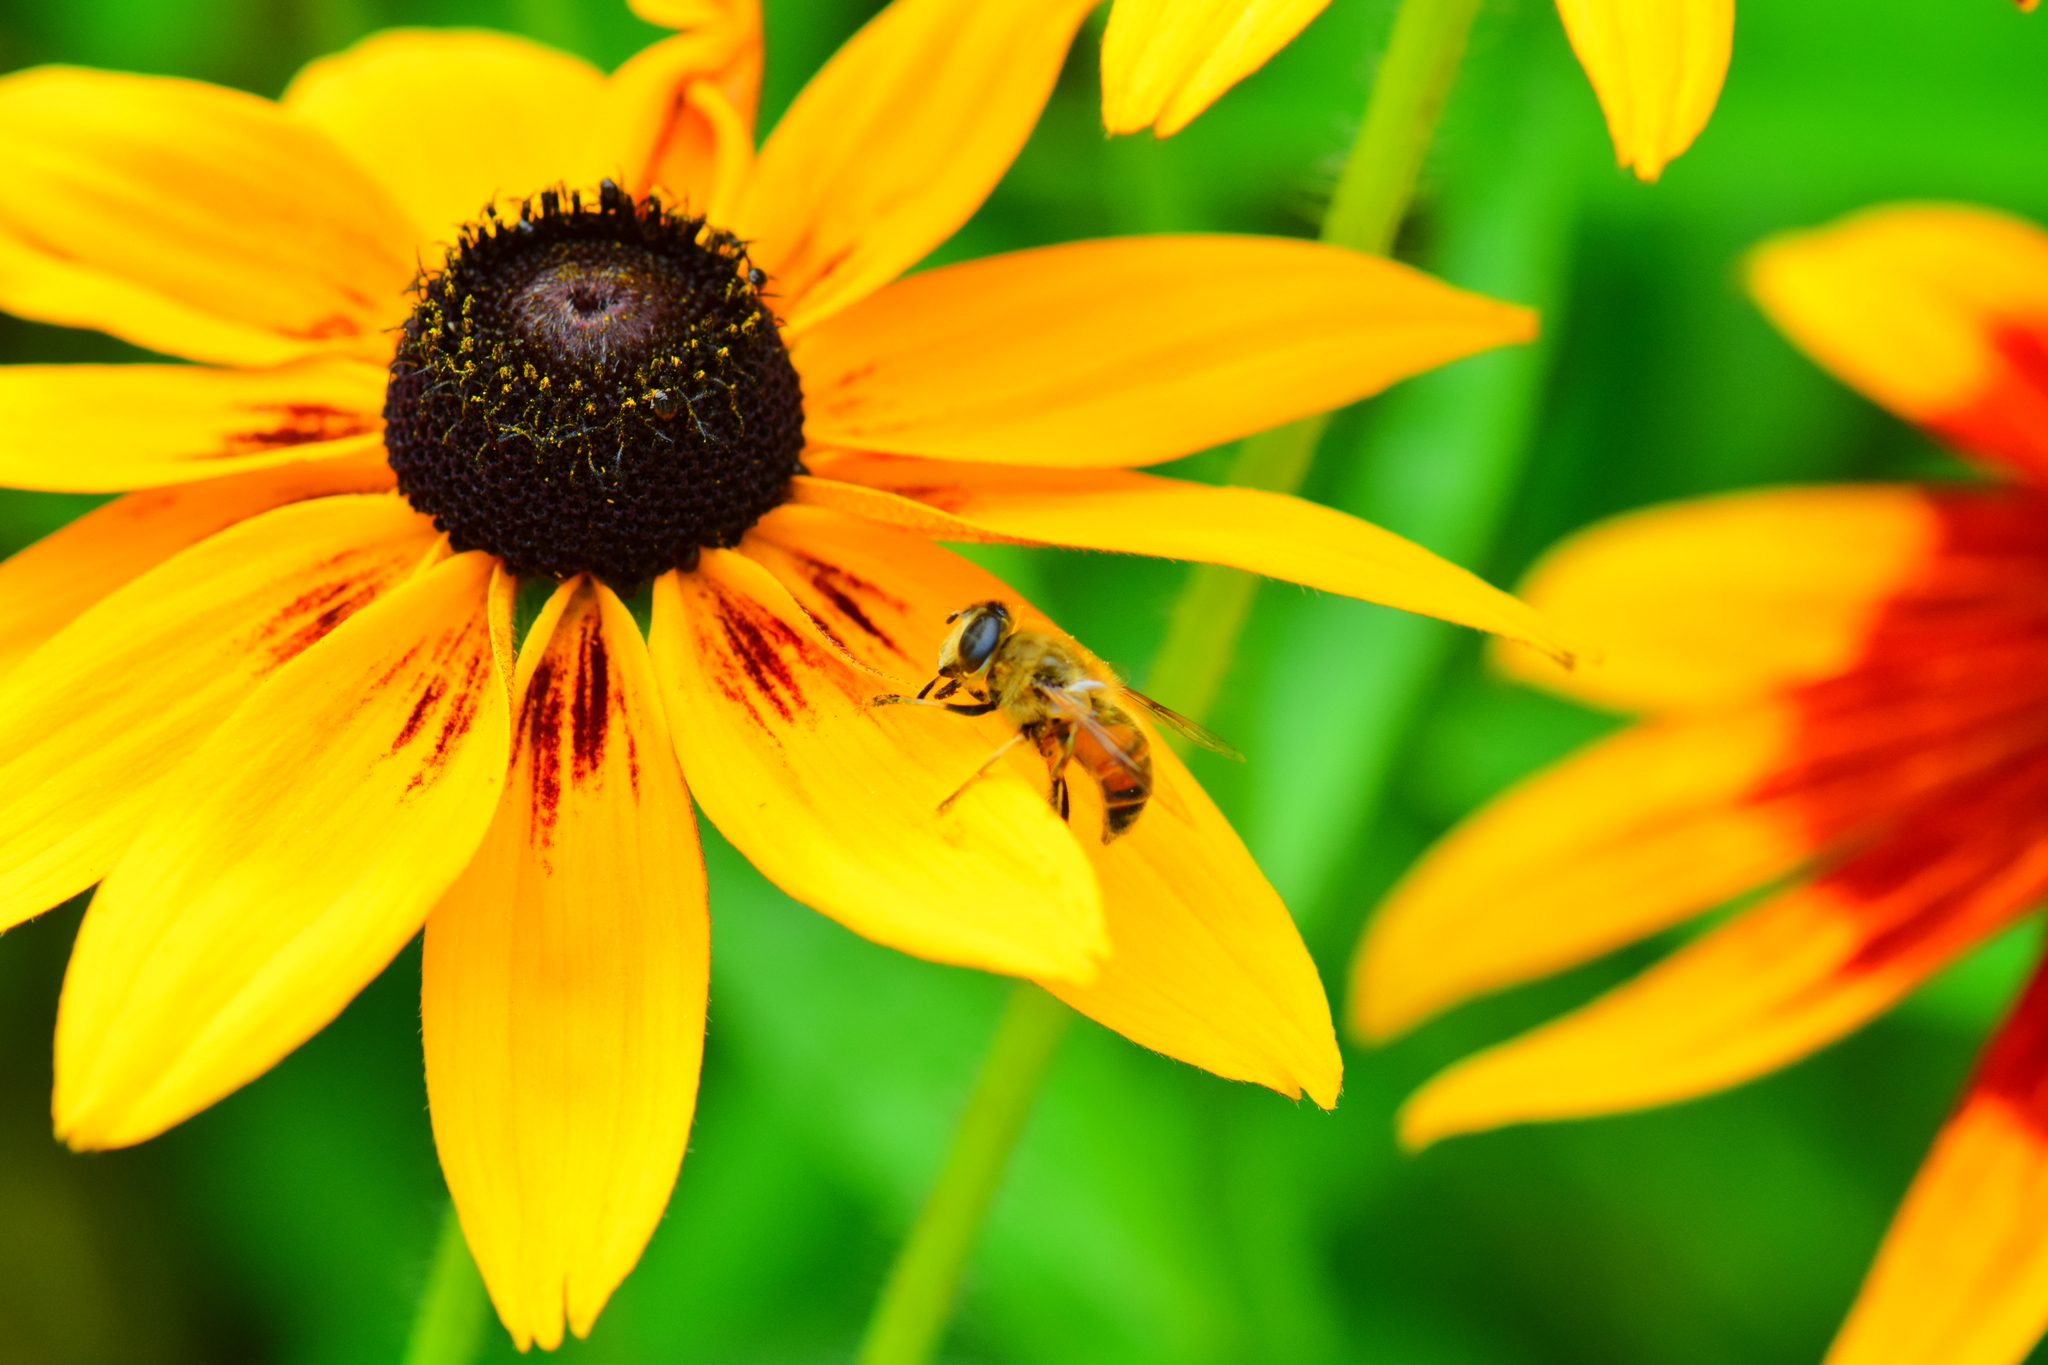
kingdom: Animalia
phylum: Arthropoda
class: Insecta
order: Diptera
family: Syrphidae
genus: Eristalis
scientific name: Eristalis tenax
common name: Drone fly
